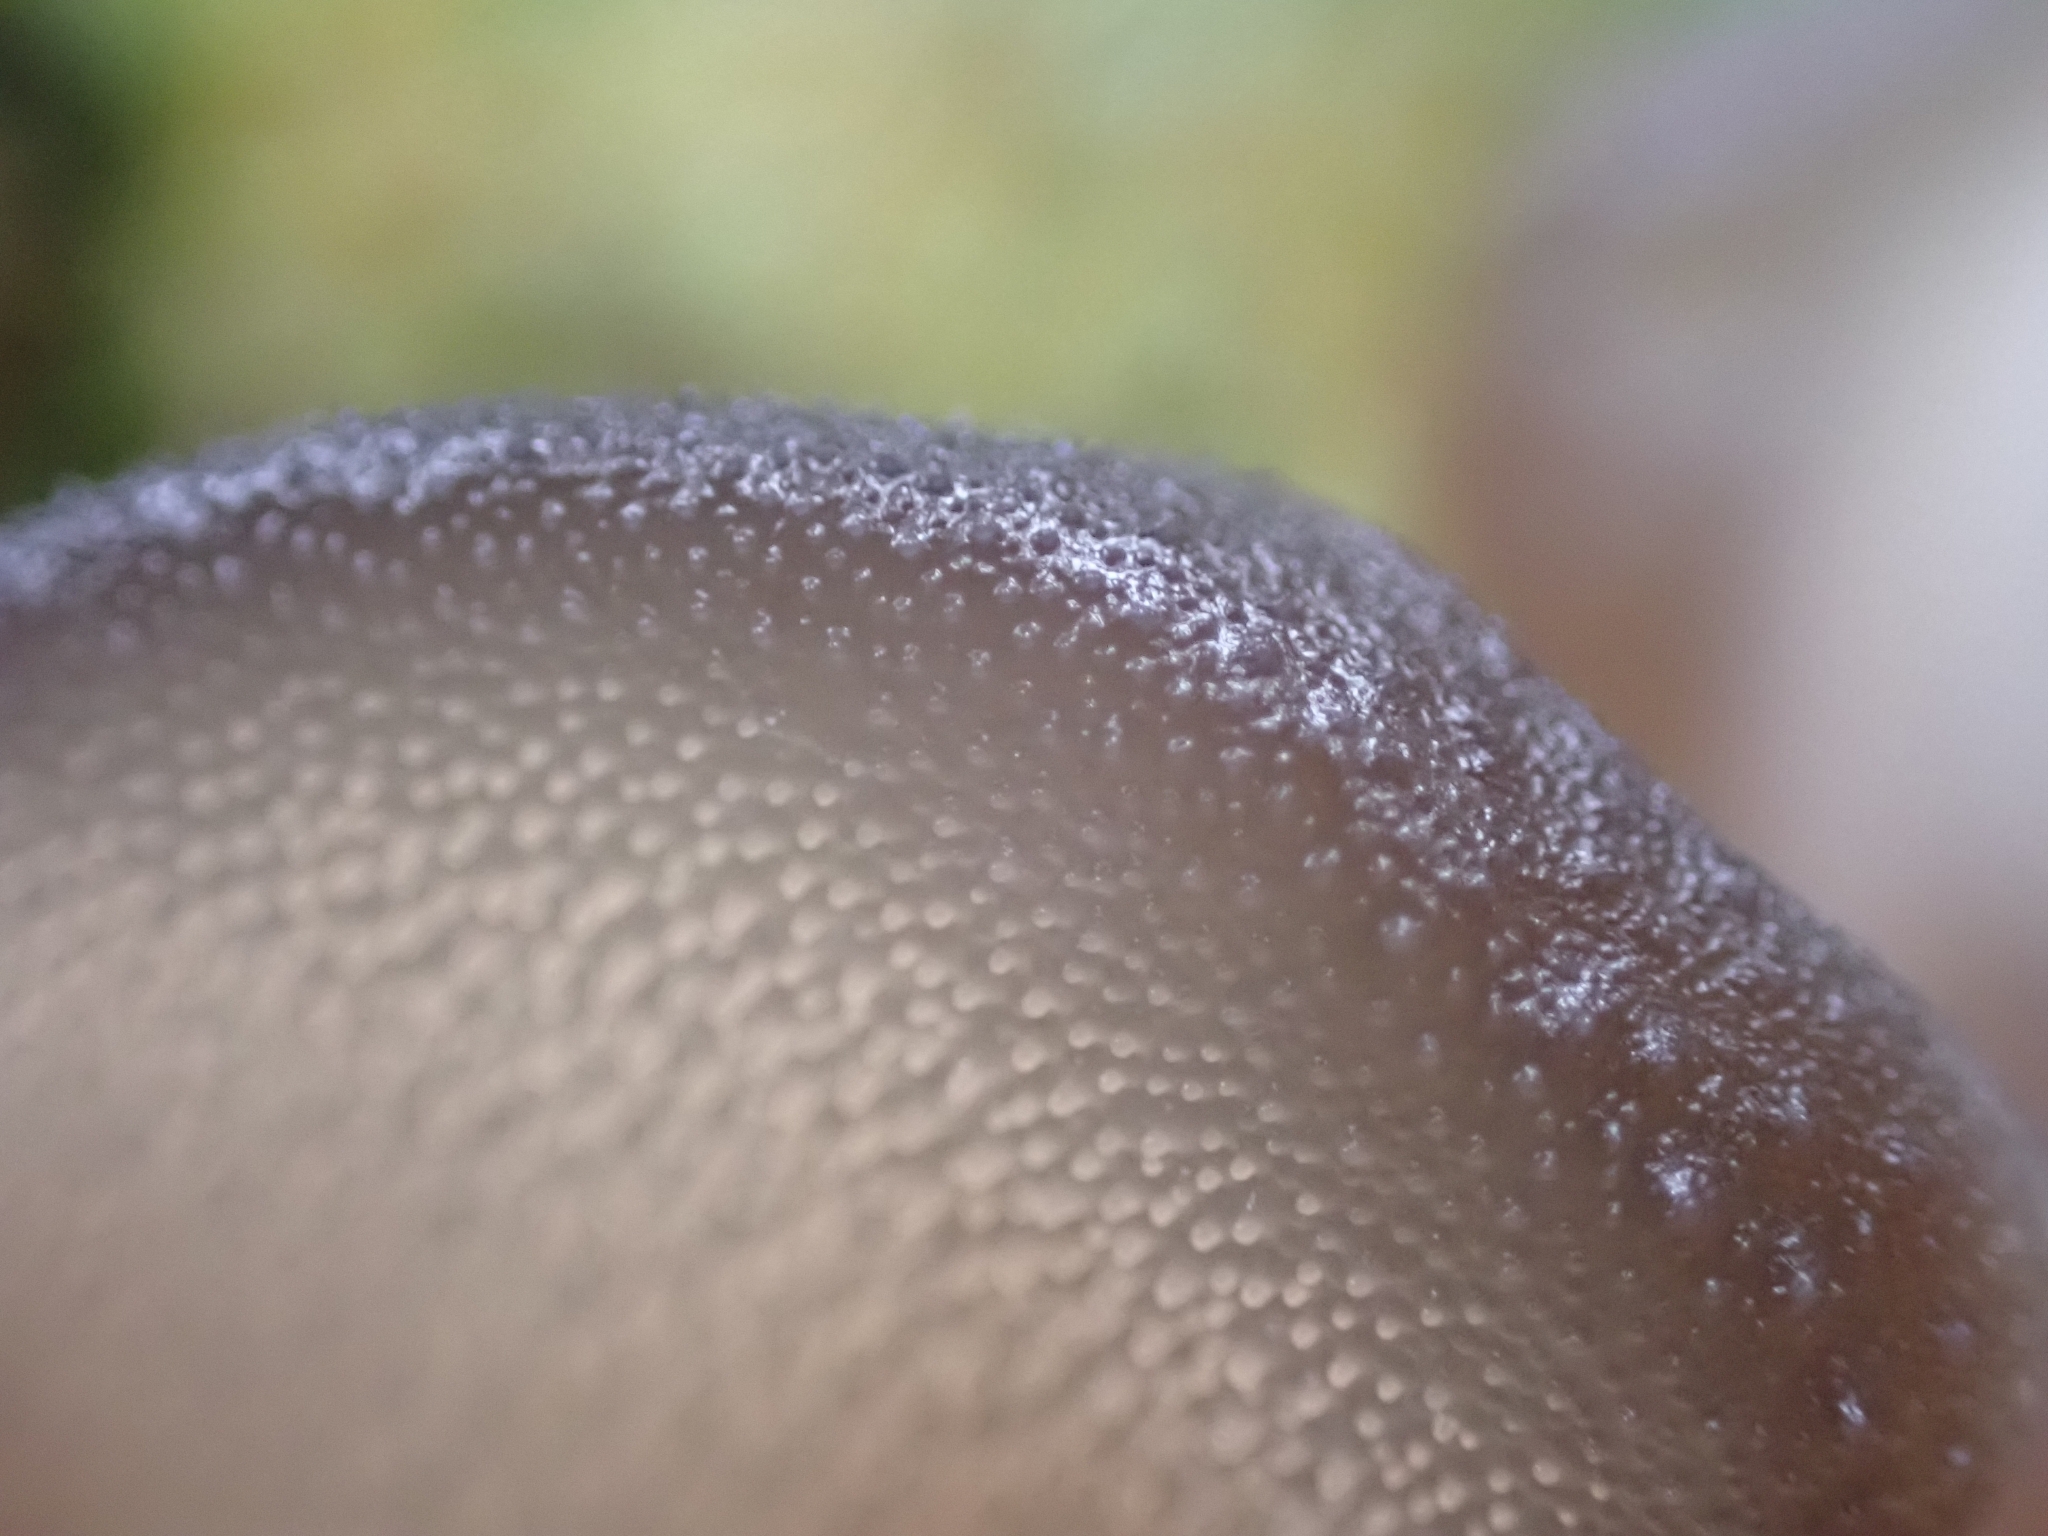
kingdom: Fungi
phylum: Basidiomycota
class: Agaricomycetes
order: Auriculariales
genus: Pseudohydnum
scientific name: Pseudohydnum gelatinosum
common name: Jelly tongue
